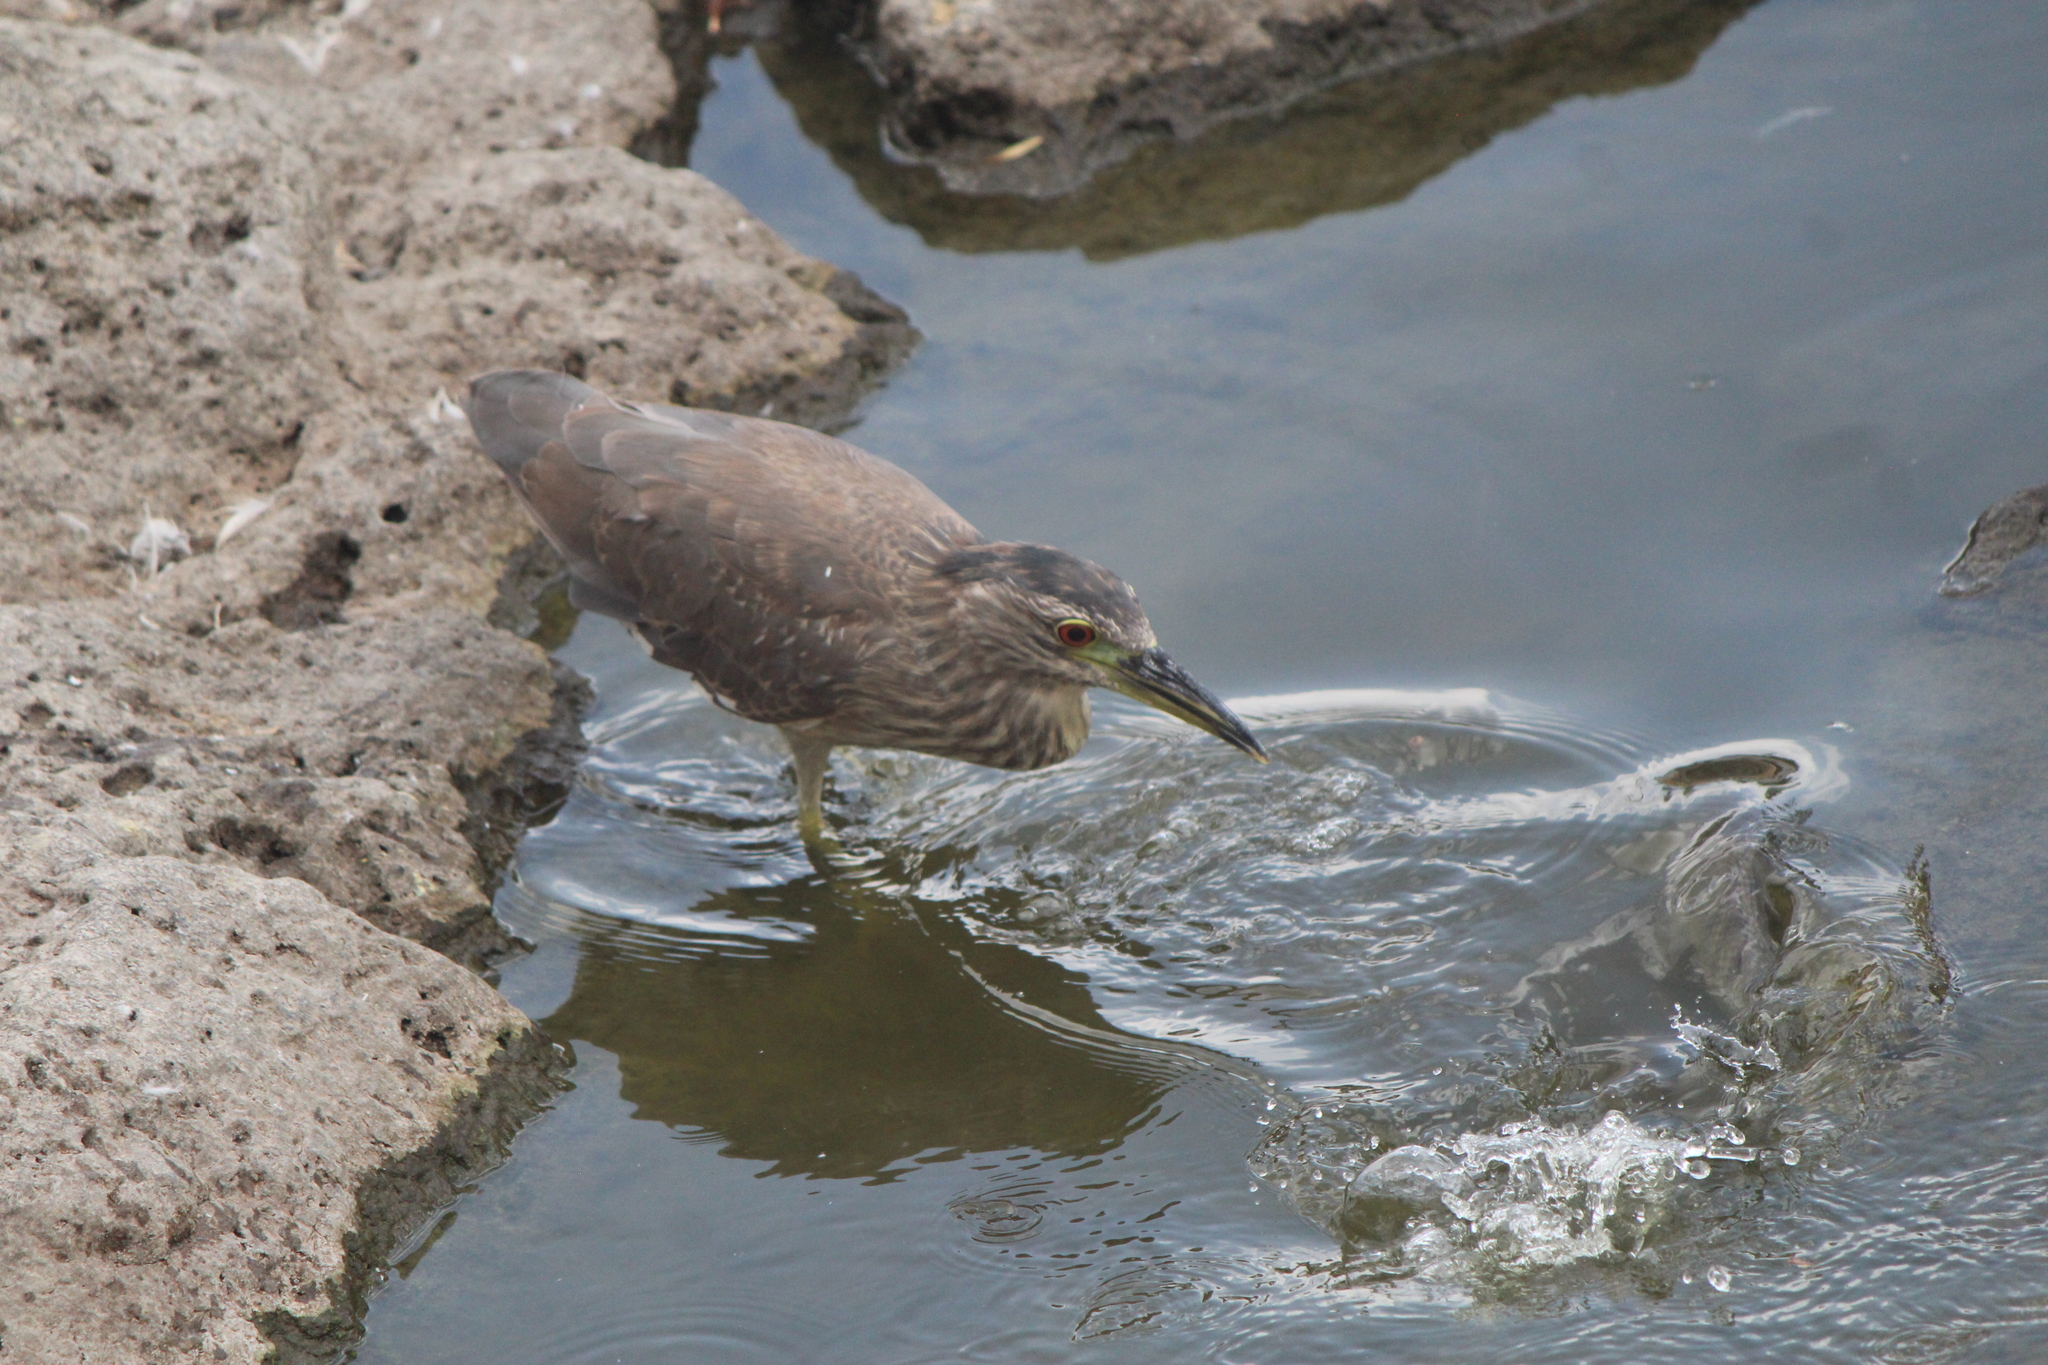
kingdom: Animalia
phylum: Chordata
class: Aves
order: Pelecaniformes
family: Ardeidae
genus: Nycticorax
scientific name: Nycticorax nycticorax
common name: Black-crowned night heron
